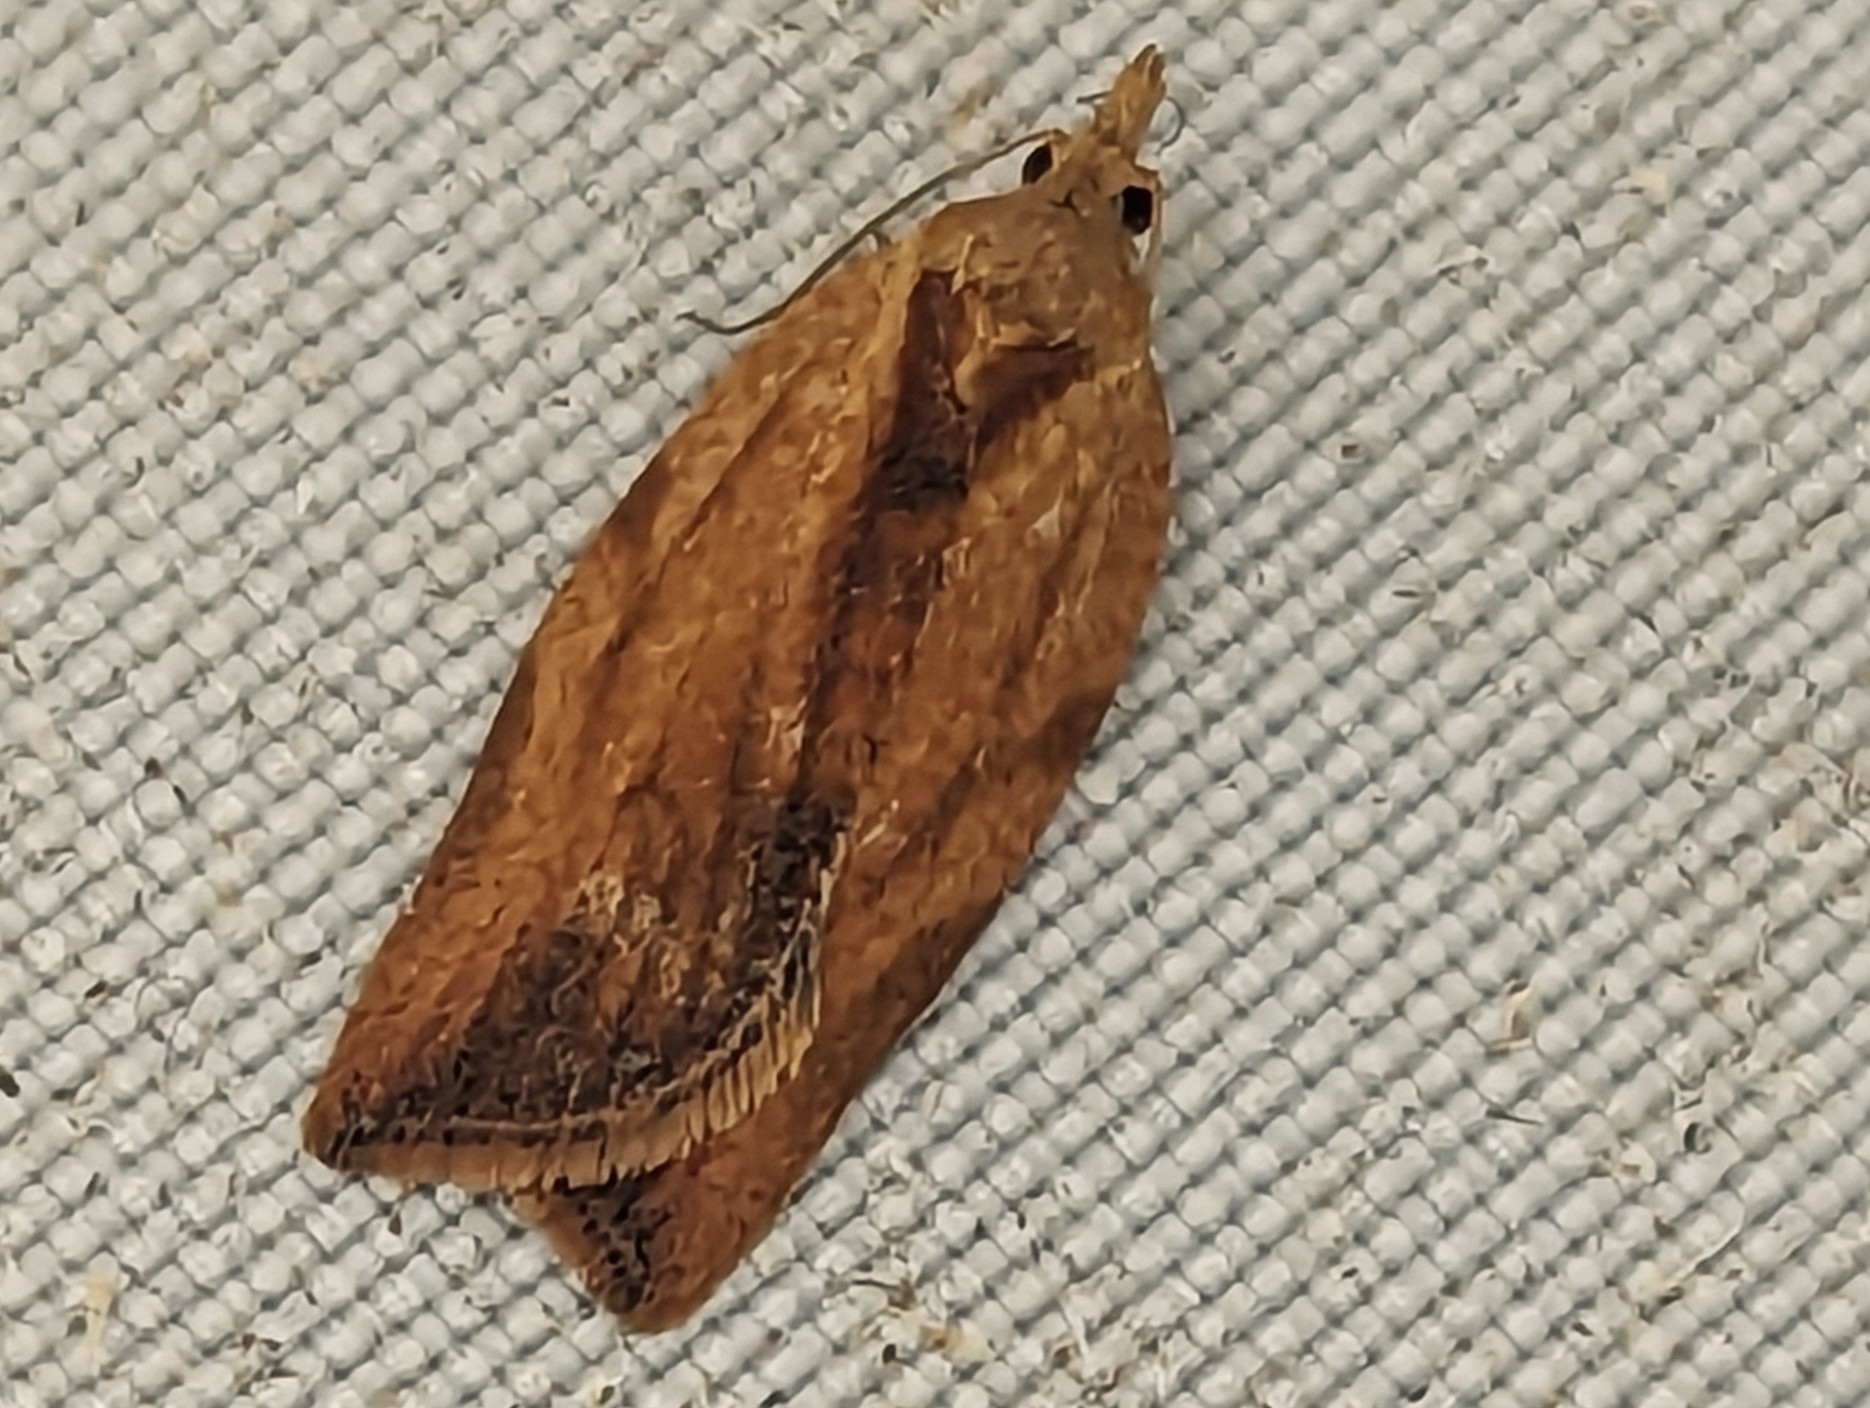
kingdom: Animalia
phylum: Arthropoda
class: Insecta
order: Lepidoptera
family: Tortricidae
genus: Epiphyas
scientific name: Epiphyas postvittana
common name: Light brown apple moth
